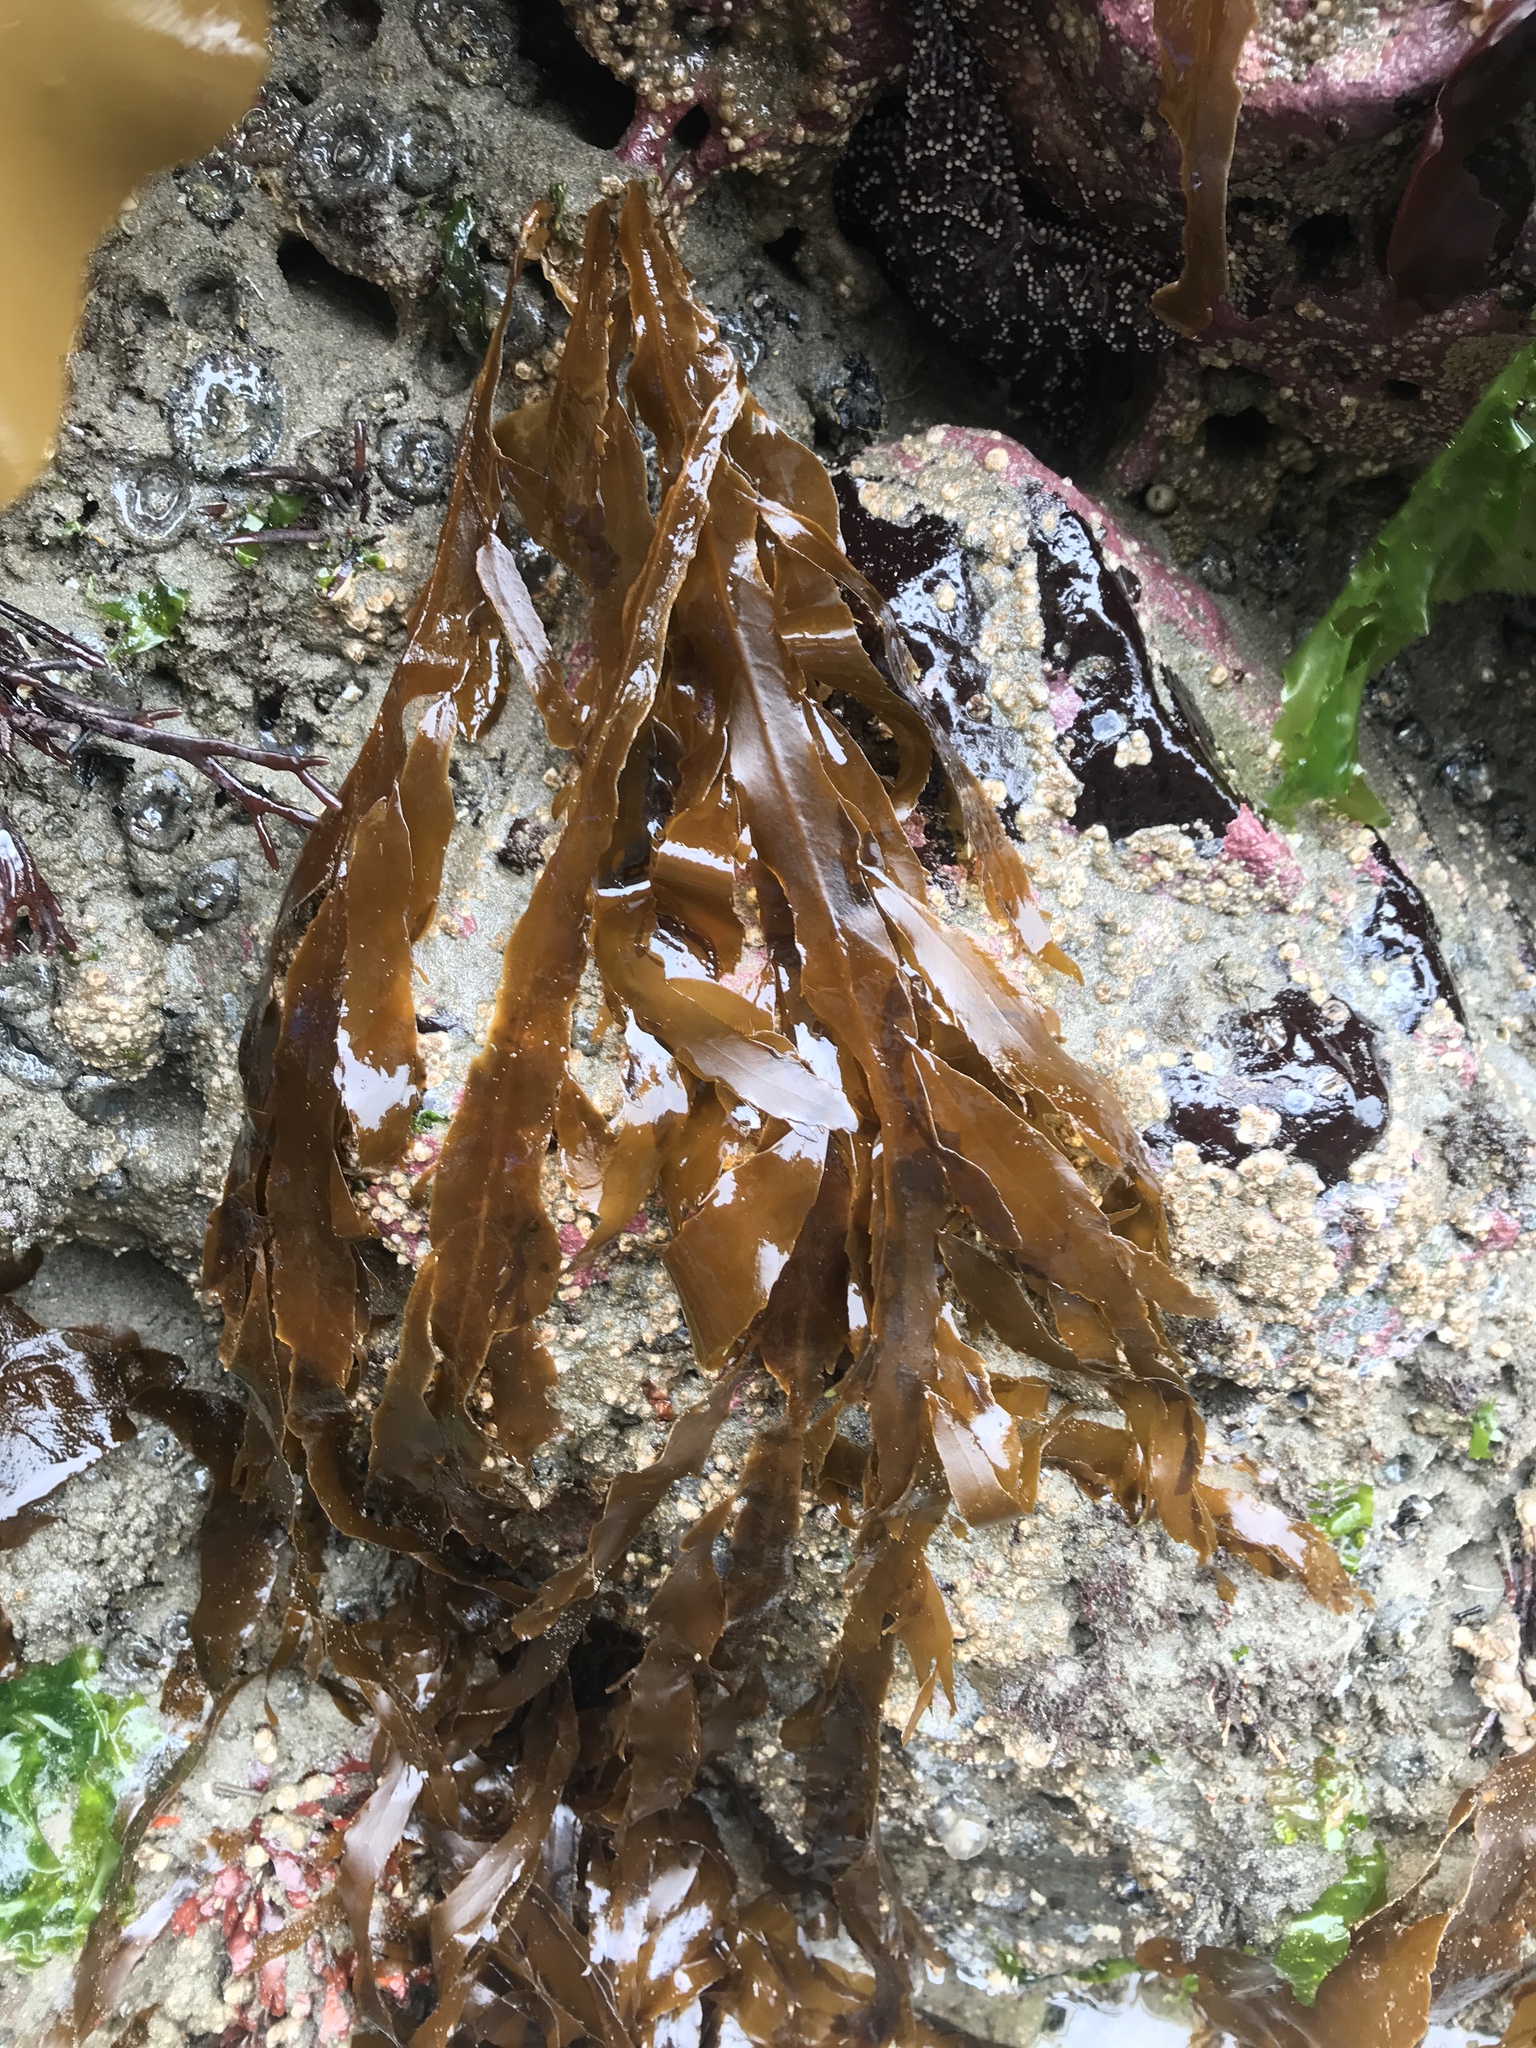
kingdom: Chromista
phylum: Ochrophyta
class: Phaeophyceae
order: Desmarestiales
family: Desmarestiaceae
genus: Desmarestia
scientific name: Desmarestia ligulata
